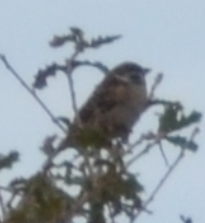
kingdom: Animalia
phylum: Chordata
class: Aves
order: Passeriformes
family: Passeridae
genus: Passer
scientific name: Passer montanus
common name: Eurasian tree sparrow
